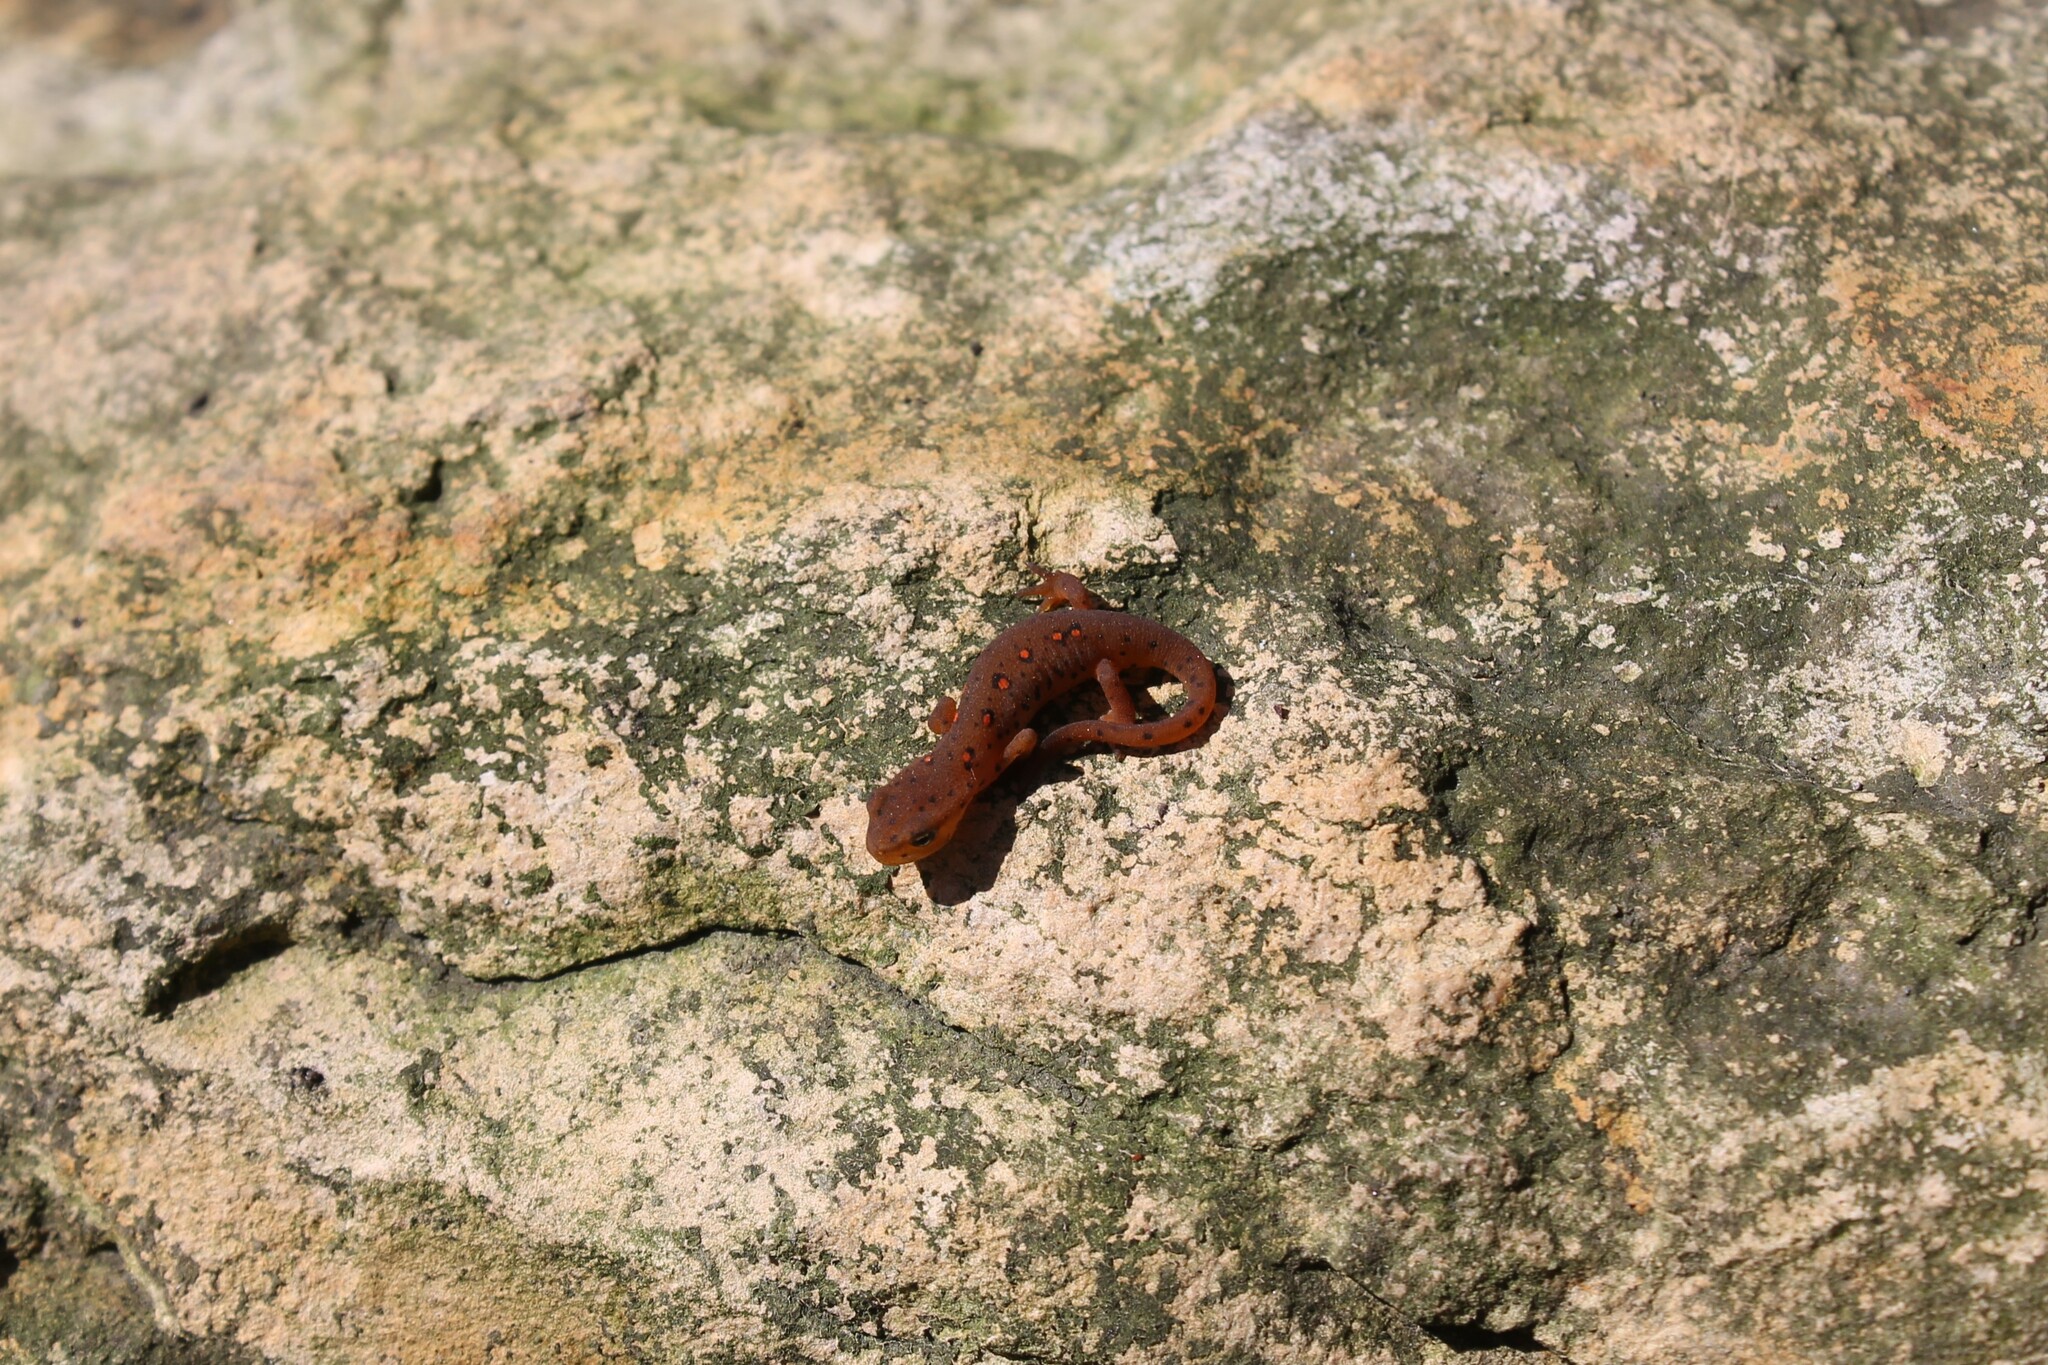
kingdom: Animalia
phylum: Chordata
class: Amphibia
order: Caudata
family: Salamandridae
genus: Notophthalmus
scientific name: Notophthalmus viridescens
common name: Eastern newt
